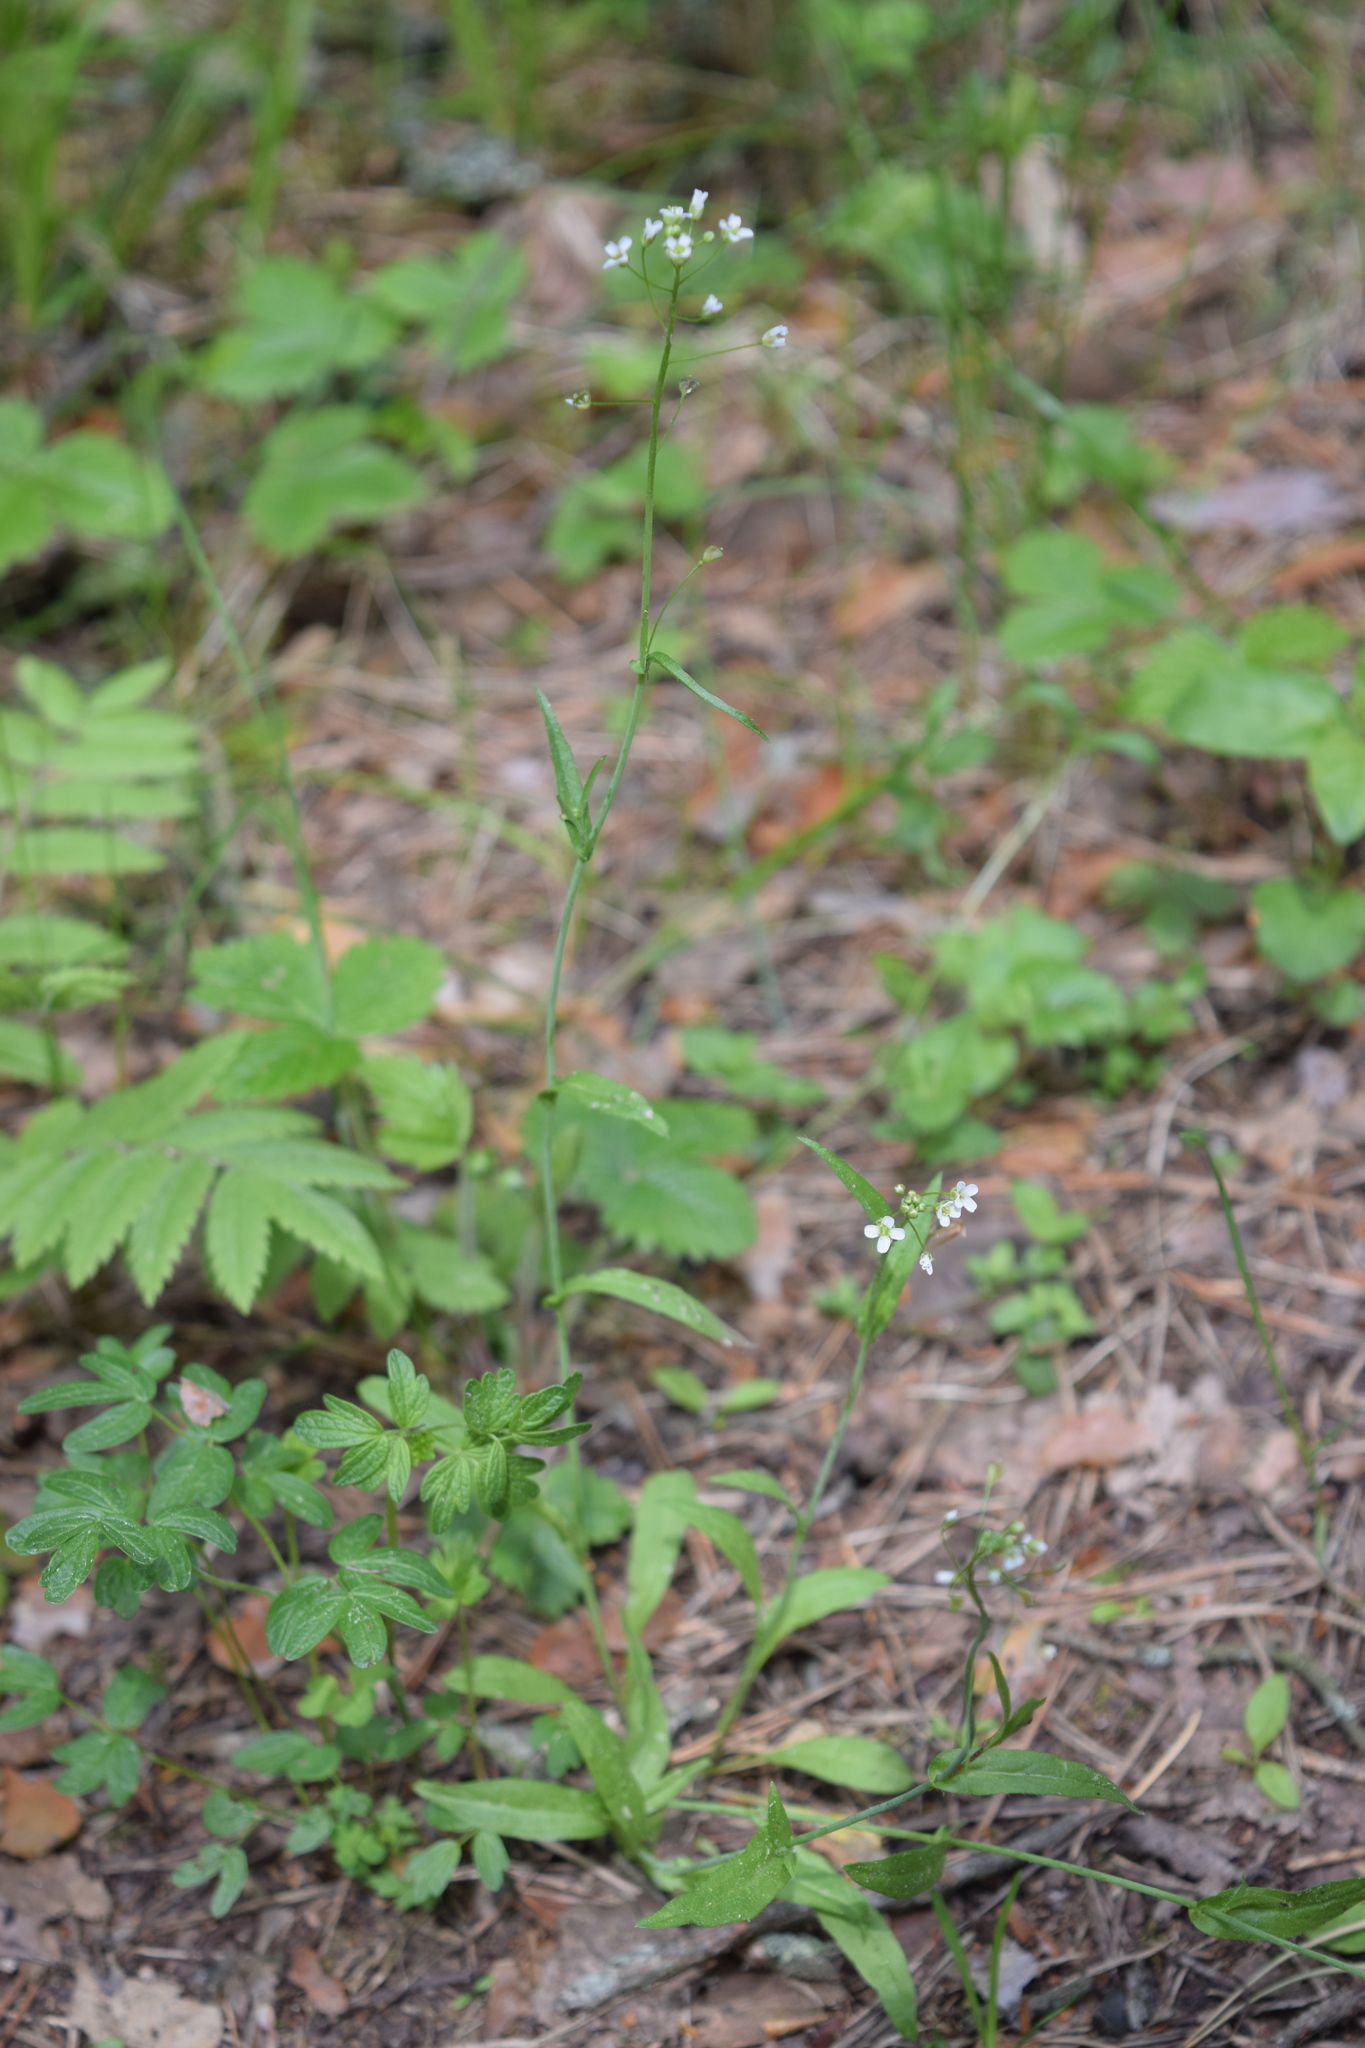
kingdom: Plantae
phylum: Tracheophyta
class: Magnoliopsida
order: Brassicales
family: Brassicaceae
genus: Capsella
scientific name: Capsella bursa-pastoris
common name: Shepherd's purse
